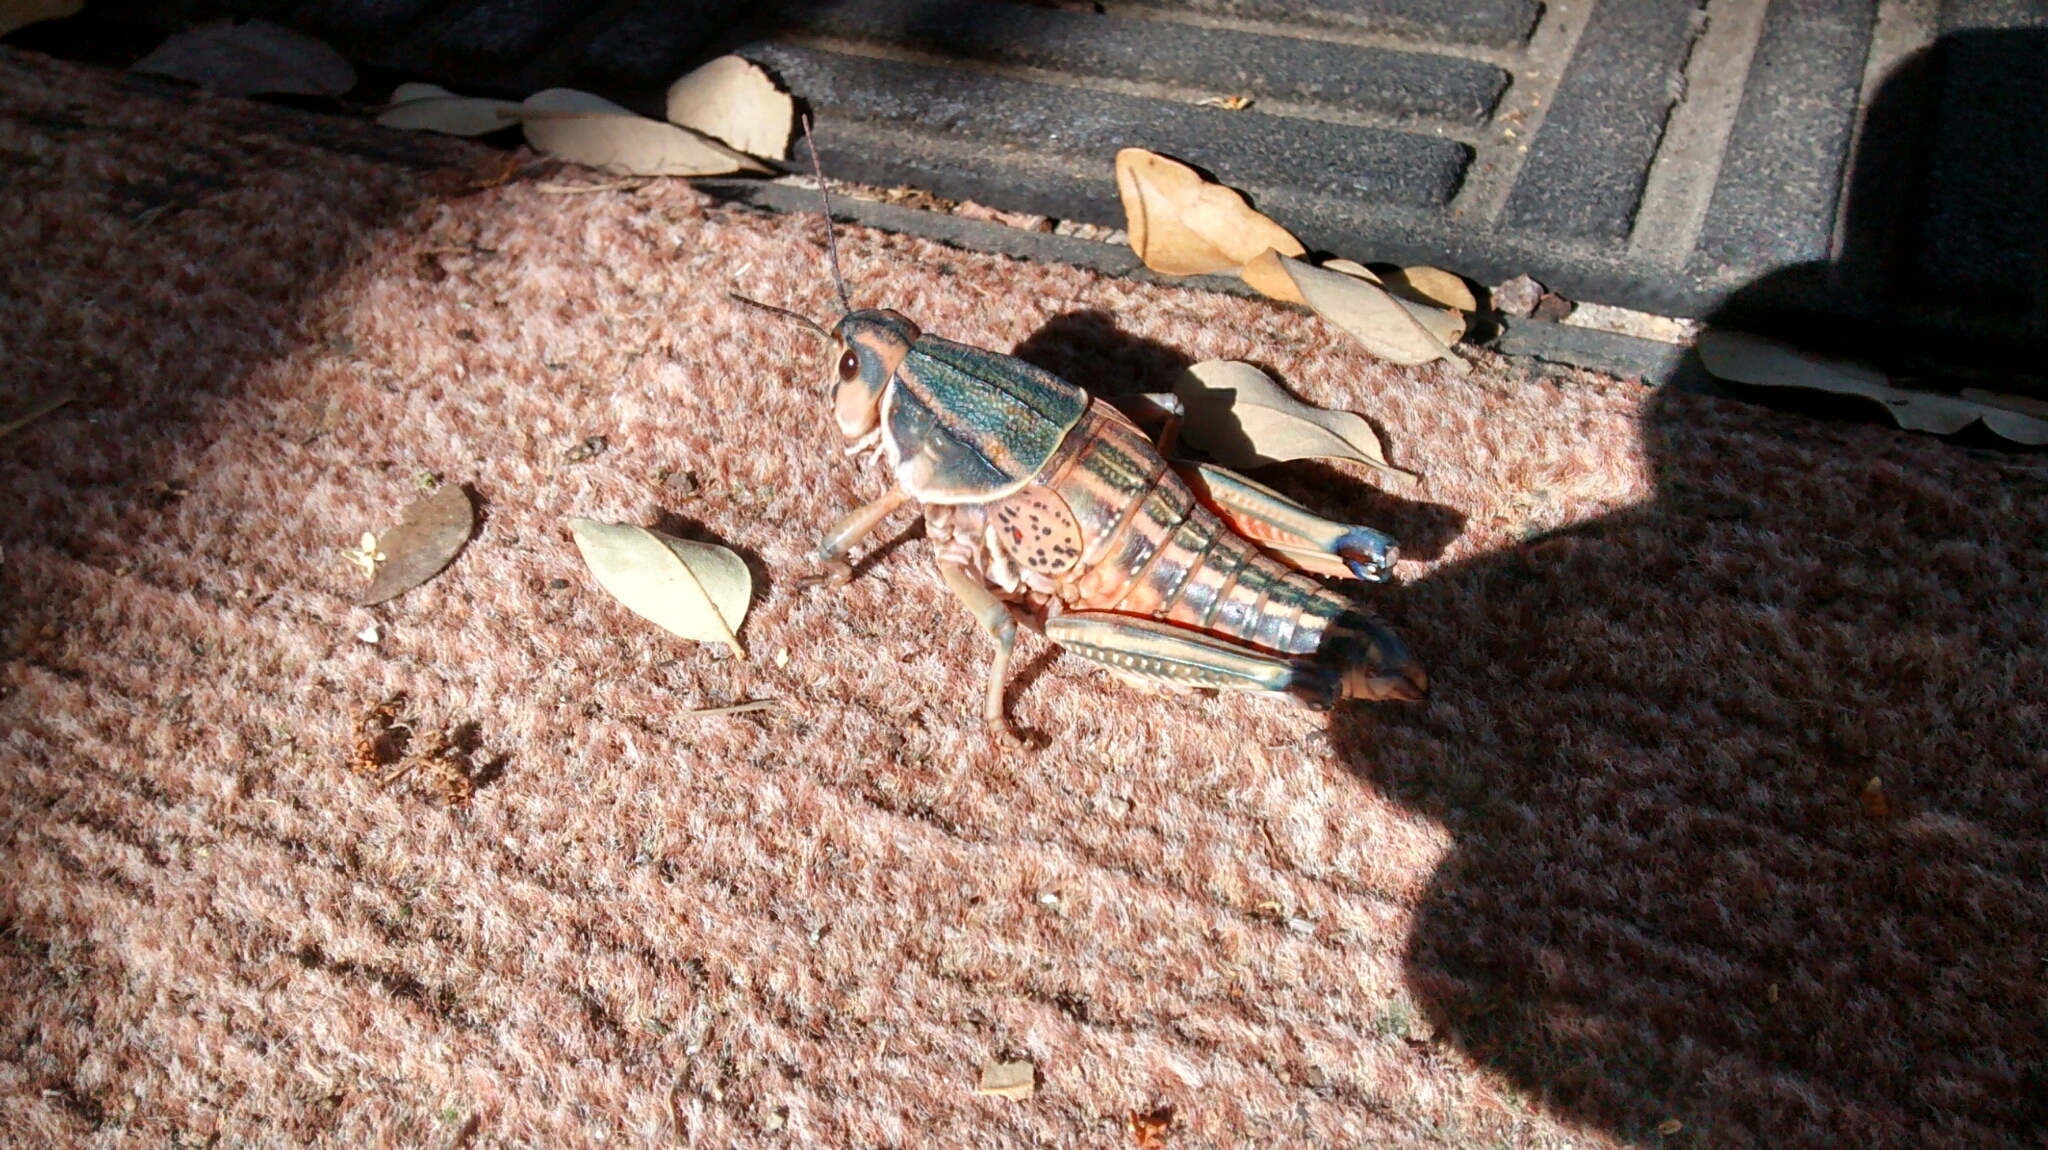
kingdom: Animalia
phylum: Arthropoda
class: Insecta
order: Orthoptera
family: Romaleidae
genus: Brachystola
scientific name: Brachystola magna
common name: Plains lubber grasshopper
